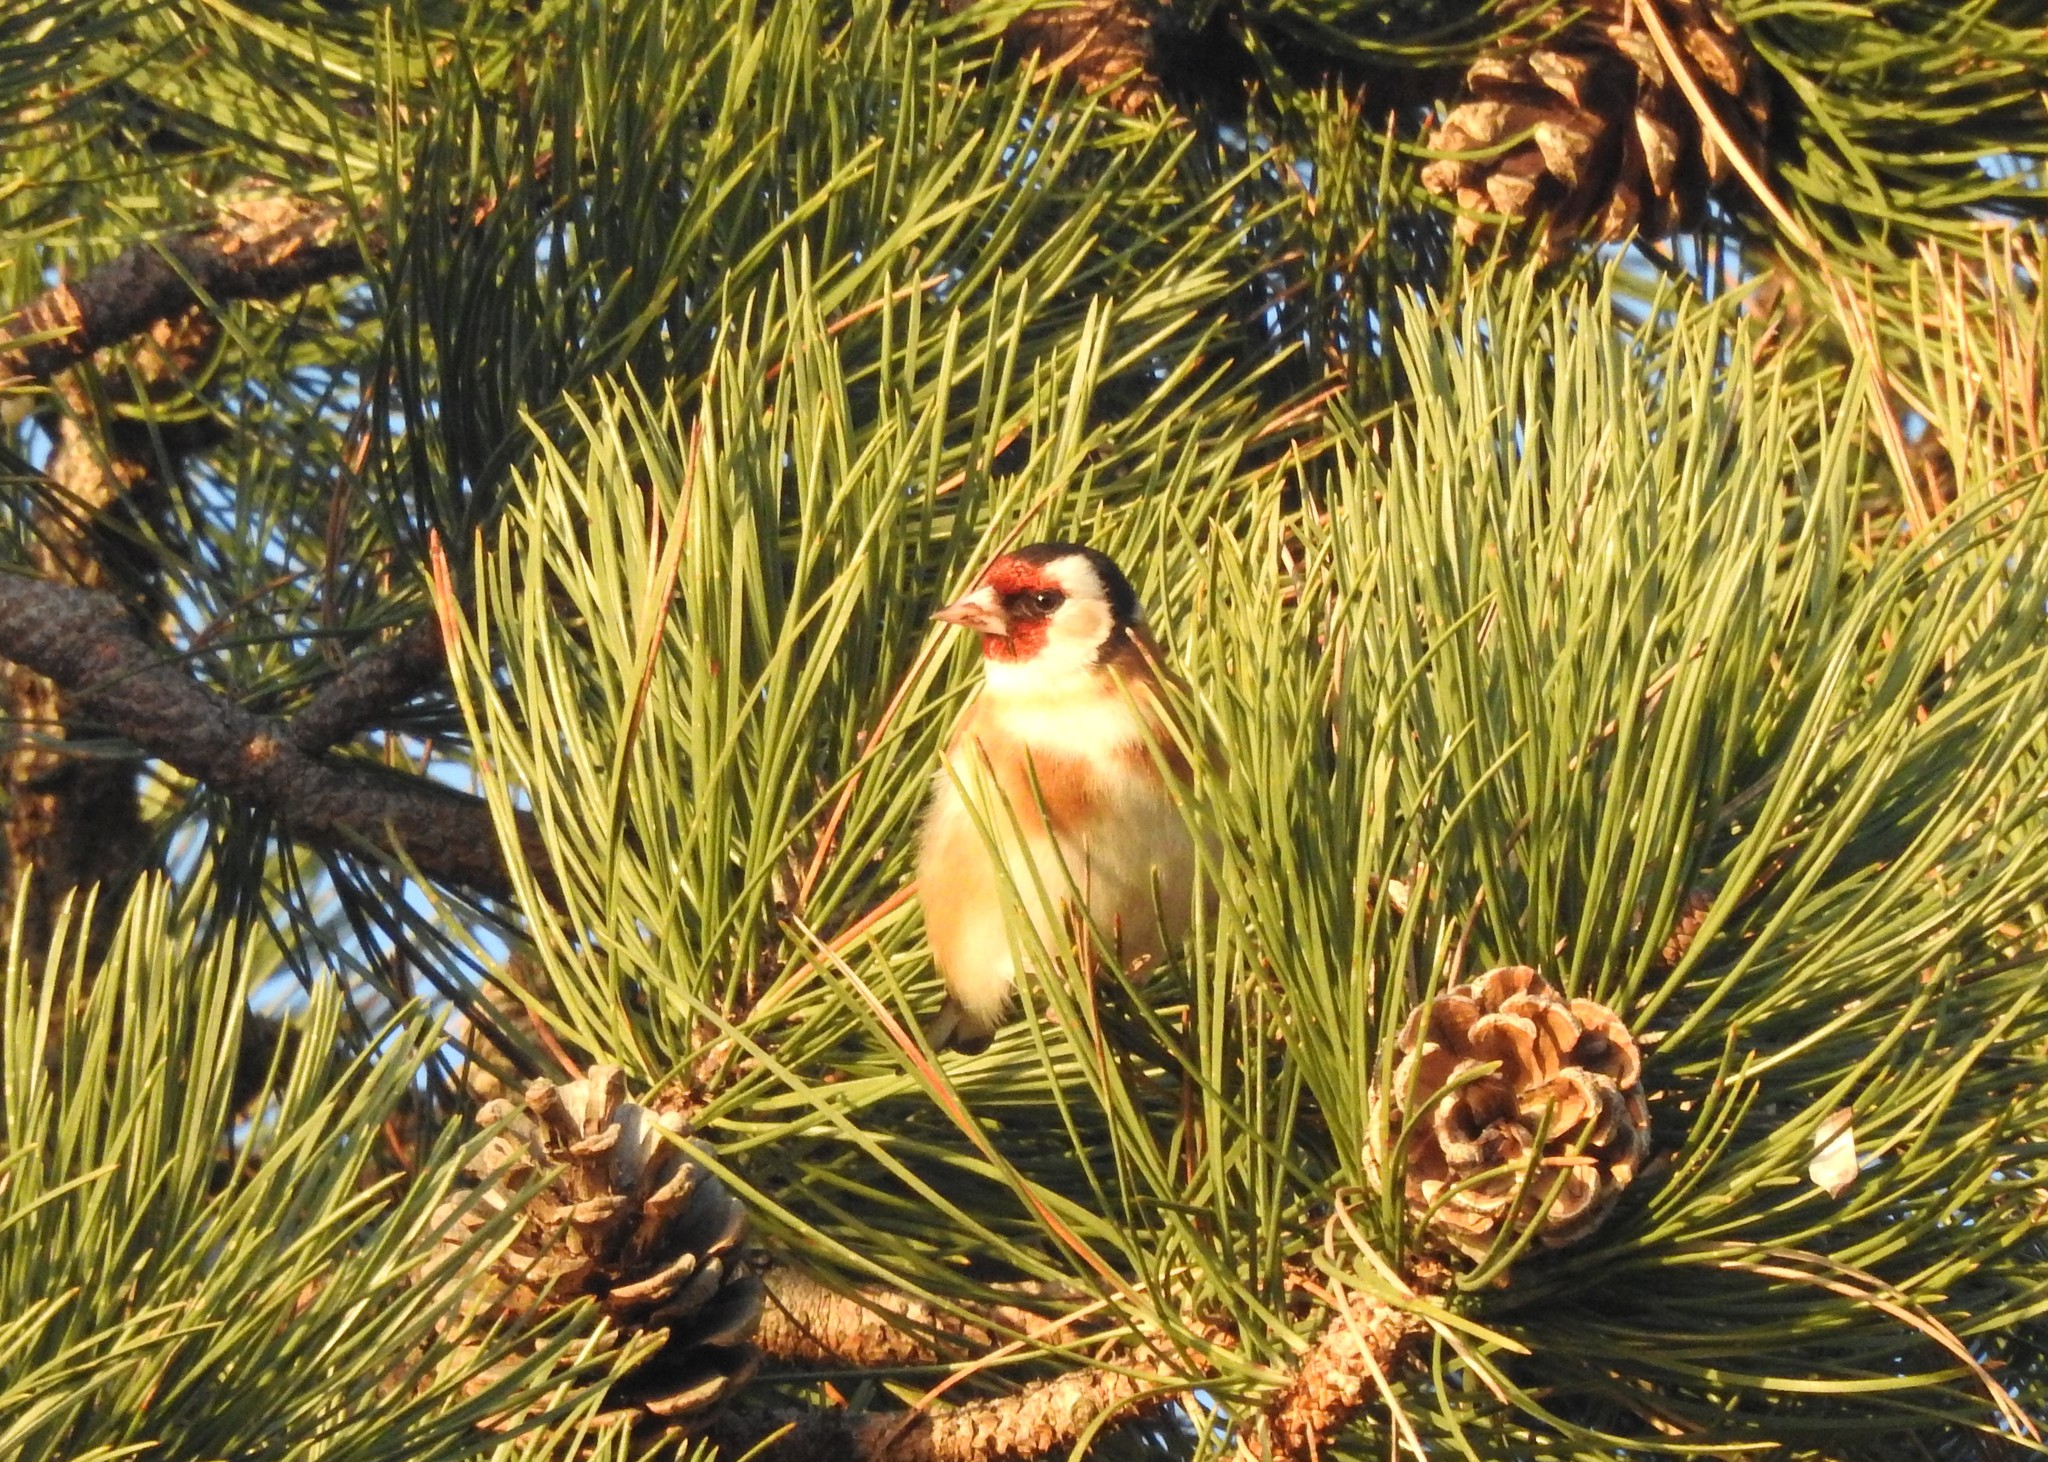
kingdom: Animalia
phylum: Chordata
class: Aves
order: Passeriformes
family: Fringillidae
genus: Carduelis
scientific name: Carduelis carduelis
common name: European goldfinch
